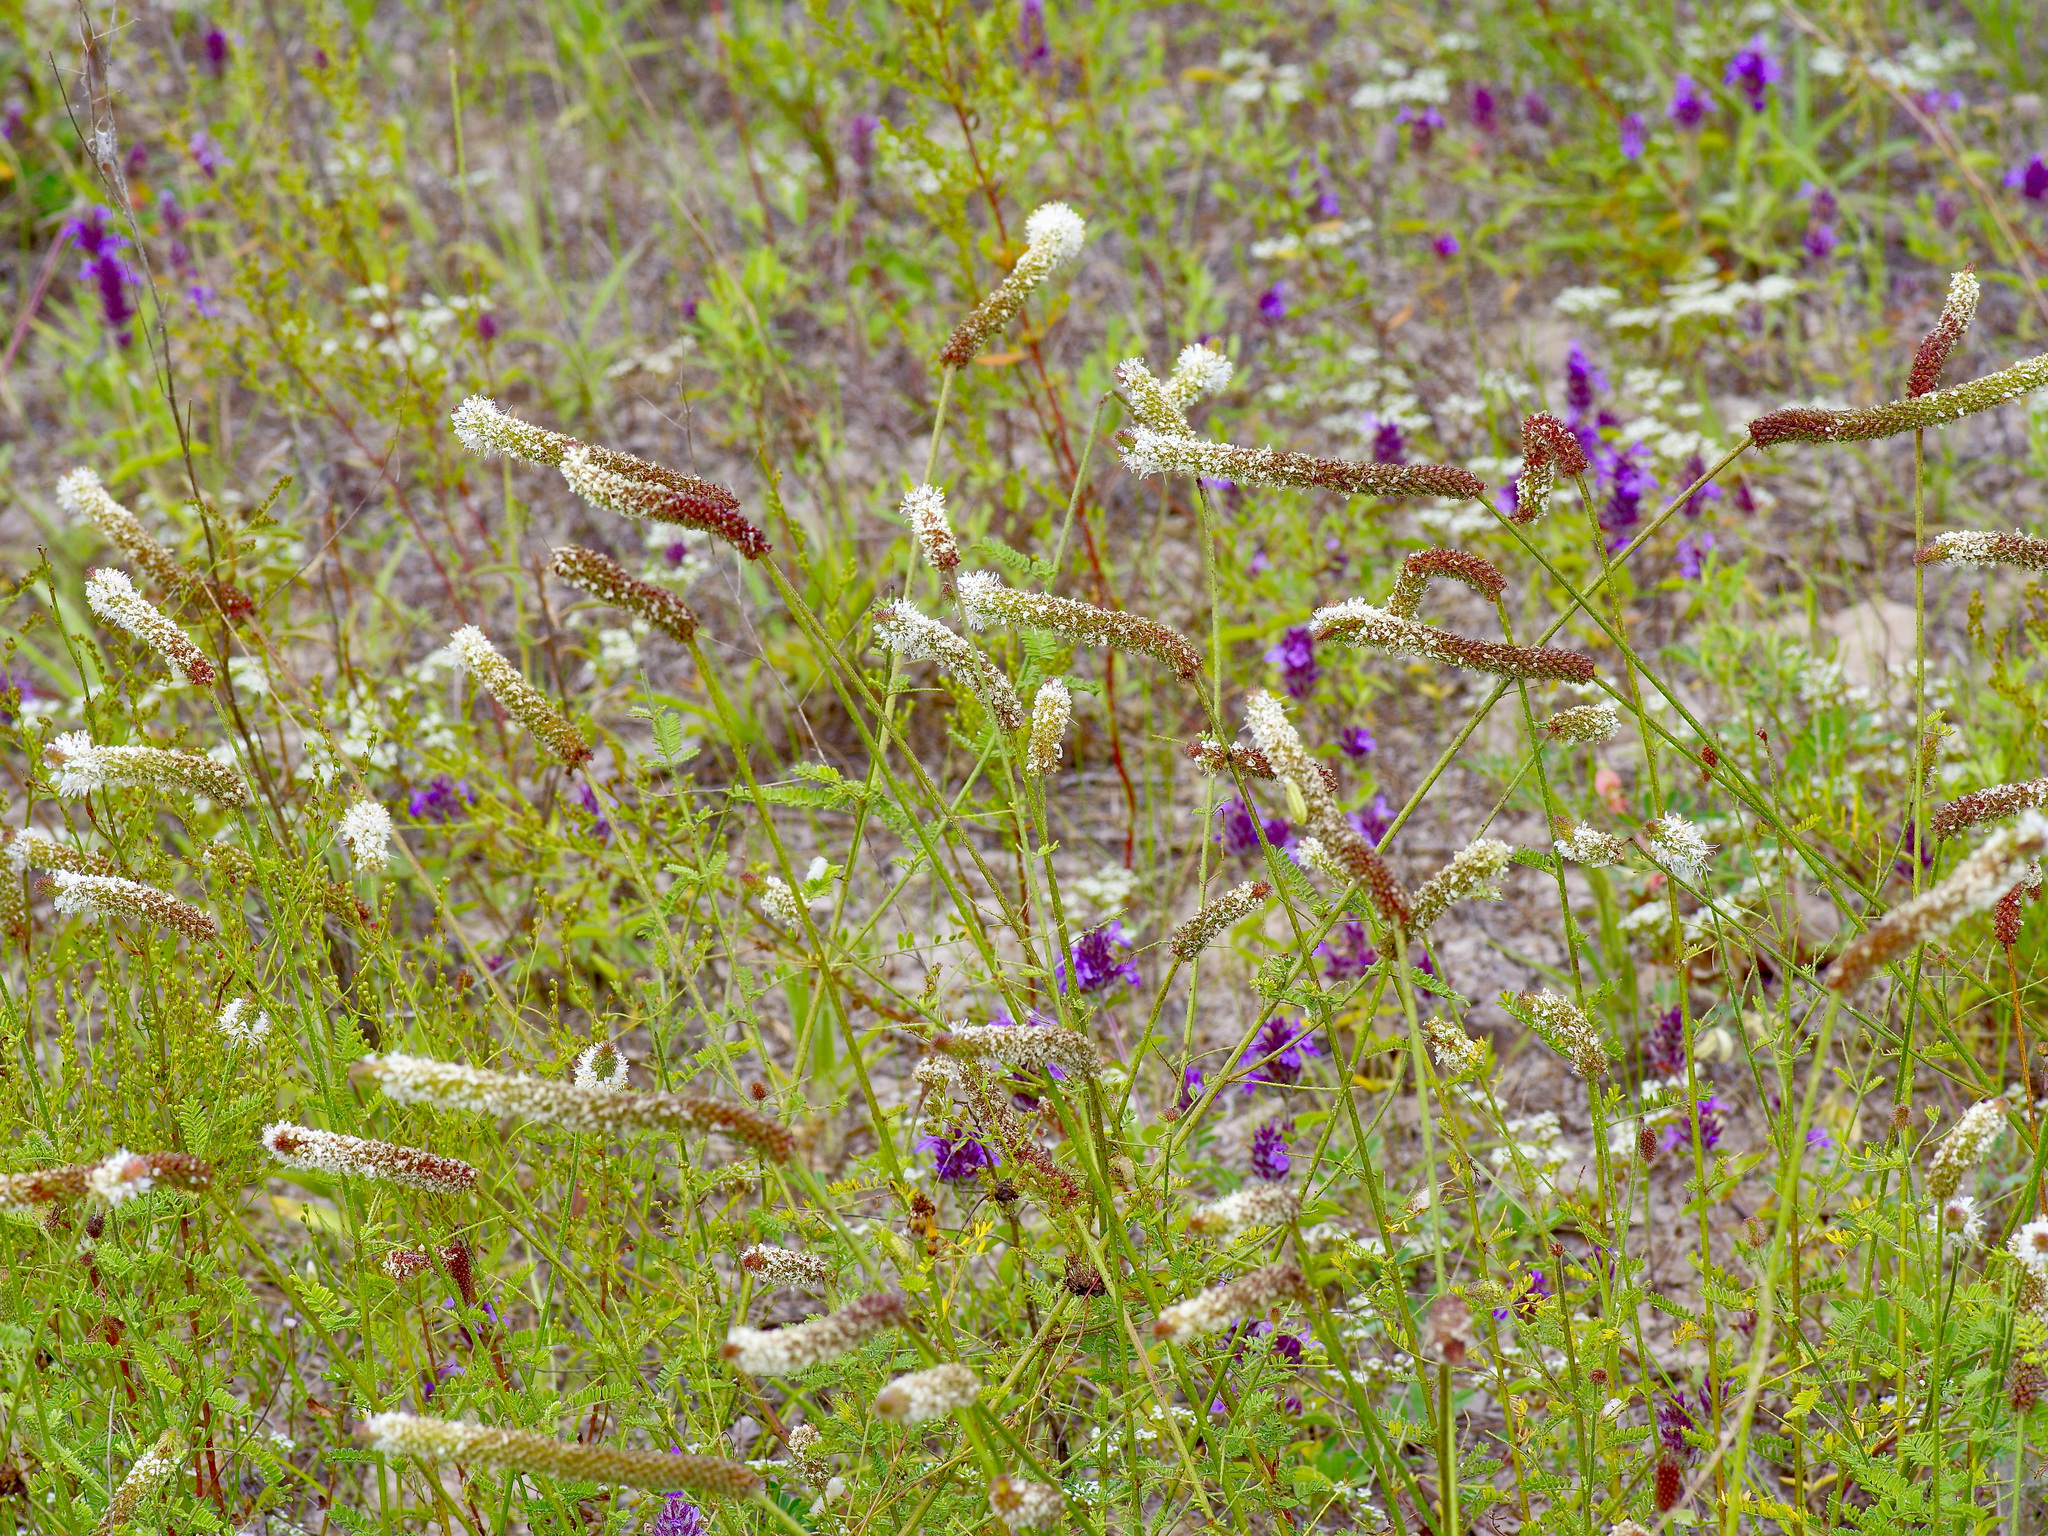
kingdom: Plantae
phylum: Tracheophyta
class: Magnoliopsida
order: Fabales
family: Fabaceae
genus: Dalea
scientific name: Dalea phleoides
